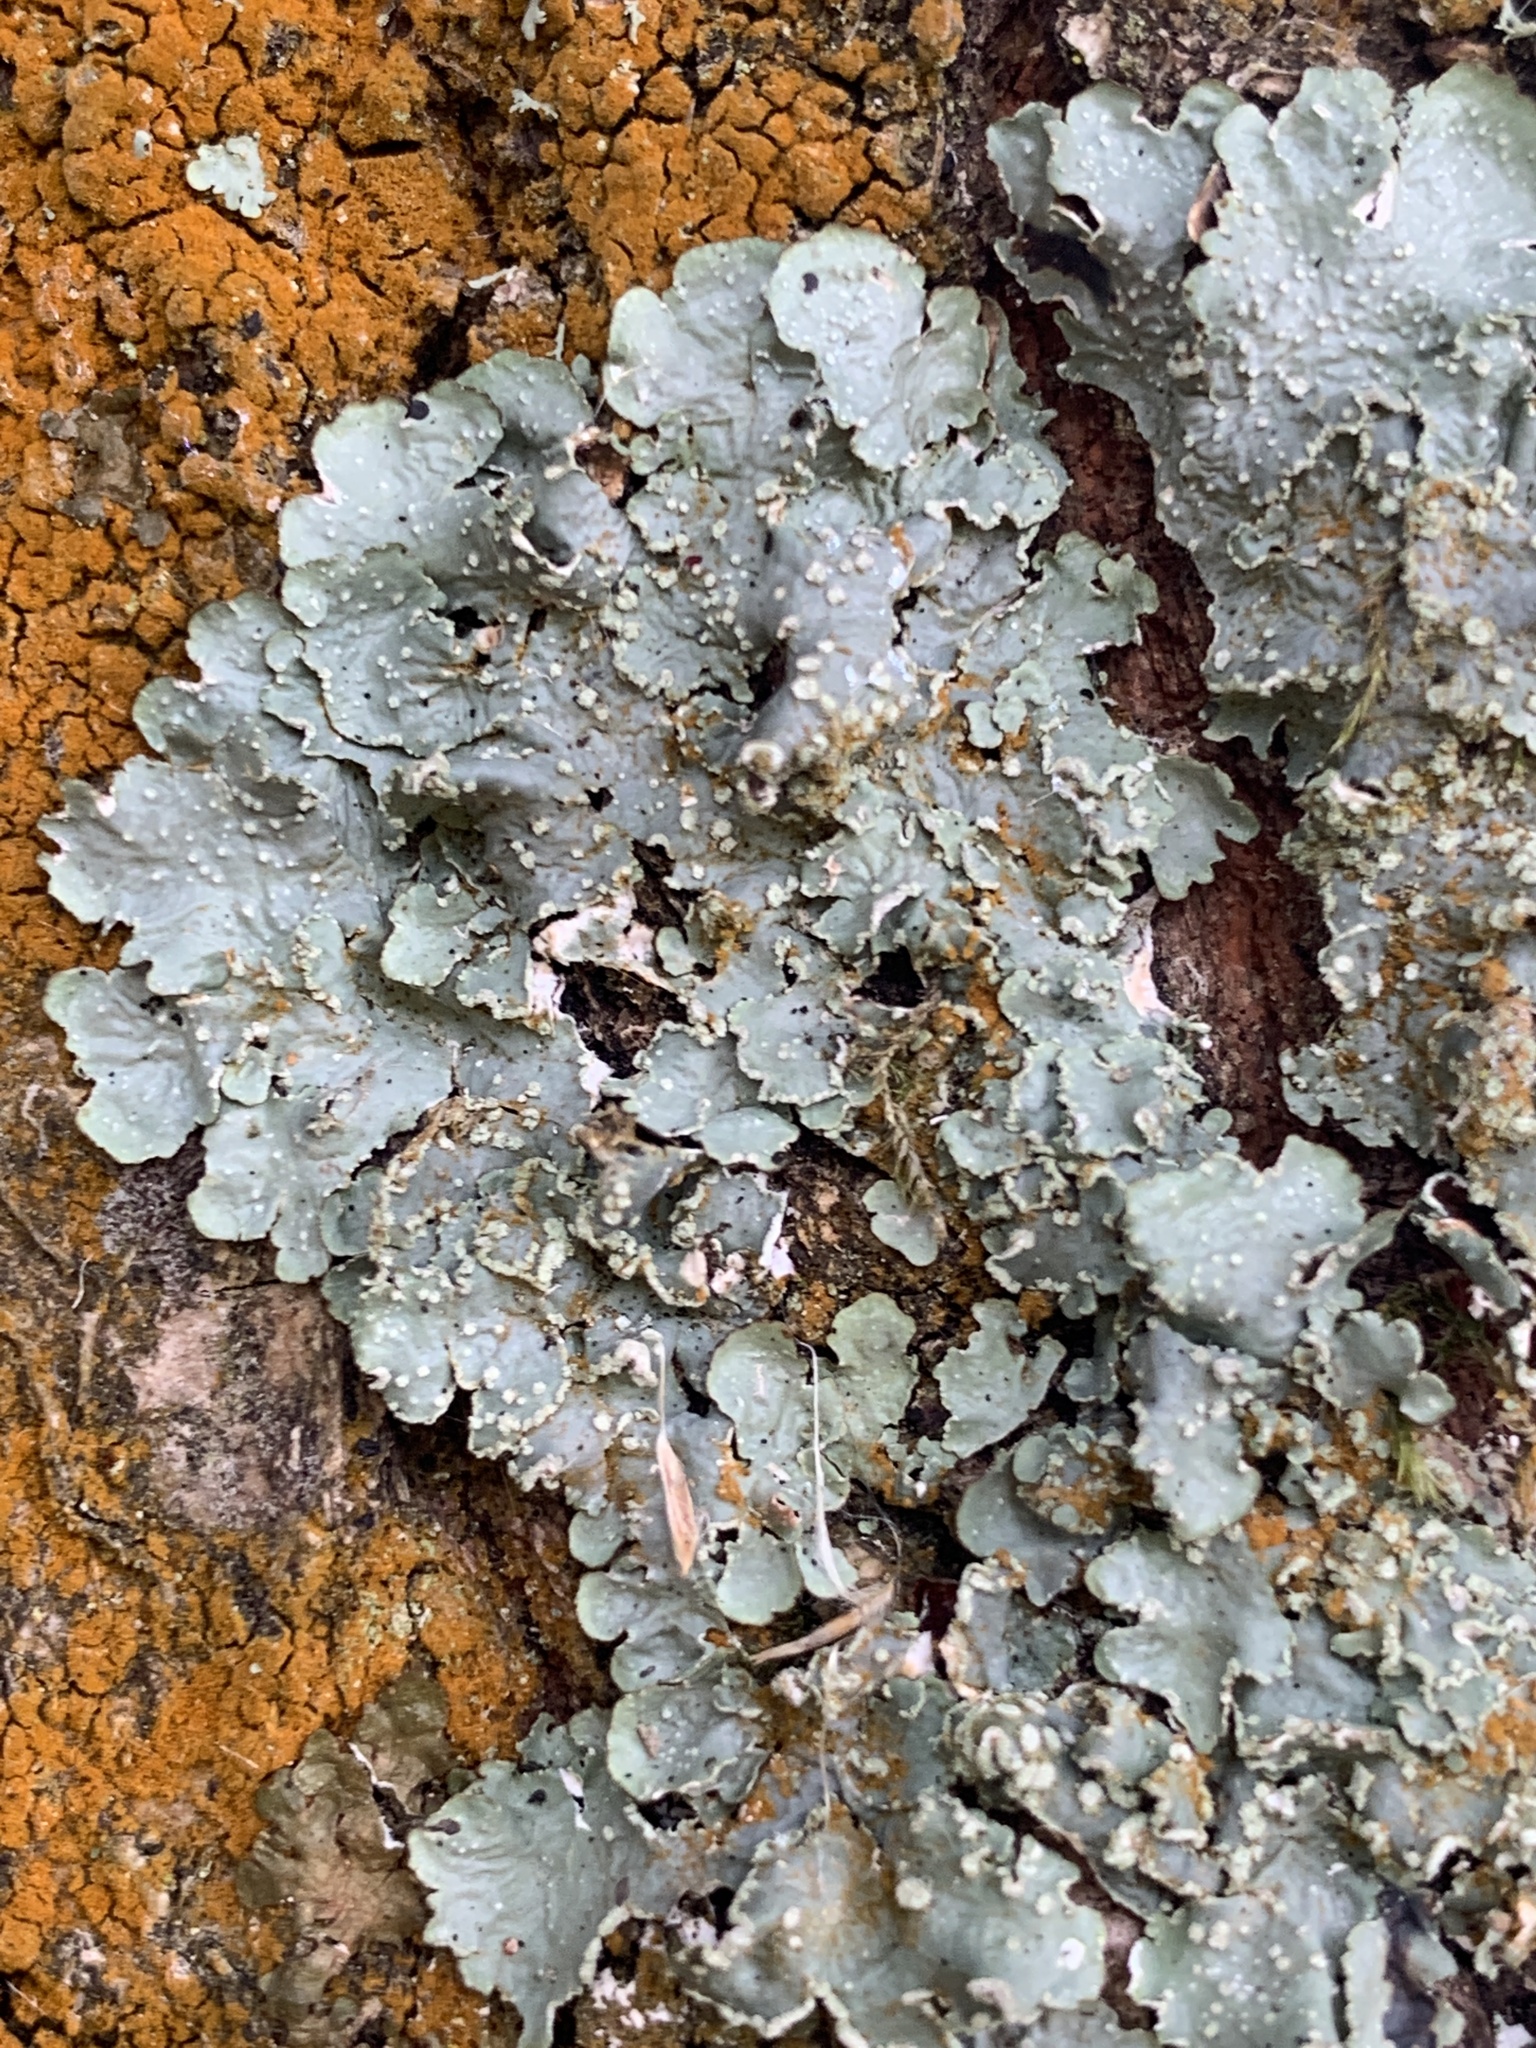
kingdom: Fungi
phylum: Ascomycota
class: Lecanoromycetes
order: Lecanorales
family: Parmeliaceae
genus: Punctelia
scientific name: Punctelia jeckeri
